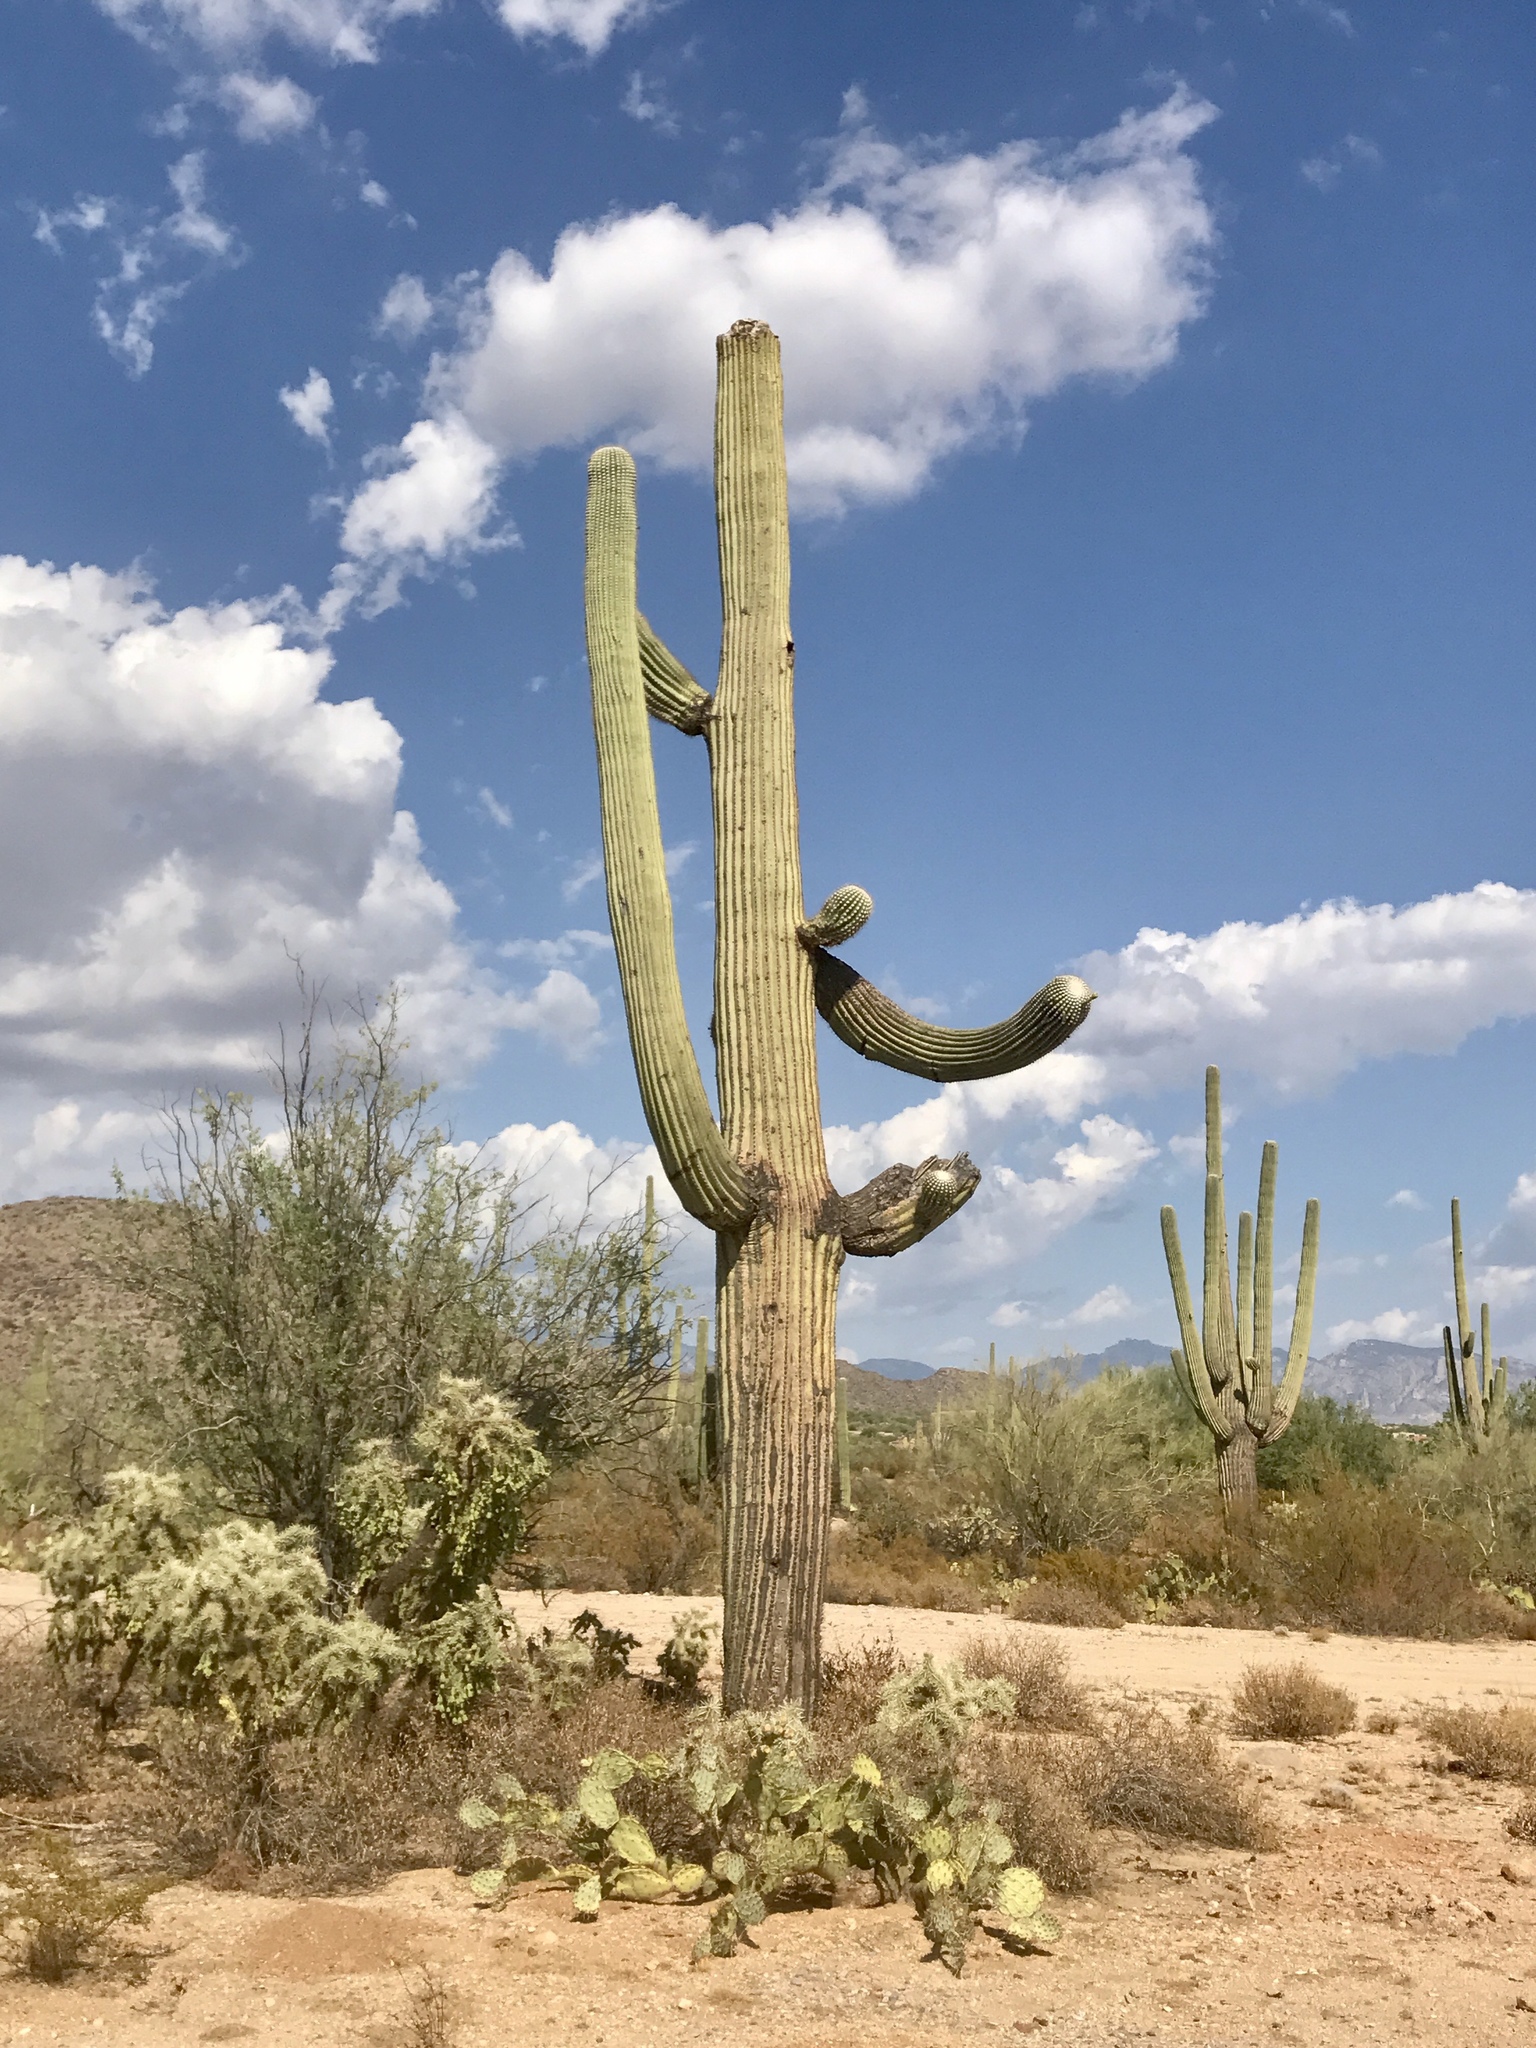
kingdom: Plantae
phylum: Tracheophyta
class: Magnoliopsida
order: Caryophyllales
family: Cactaceae
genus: Carnegiea
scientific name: Carnegiea gigantea
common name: Saguaro
